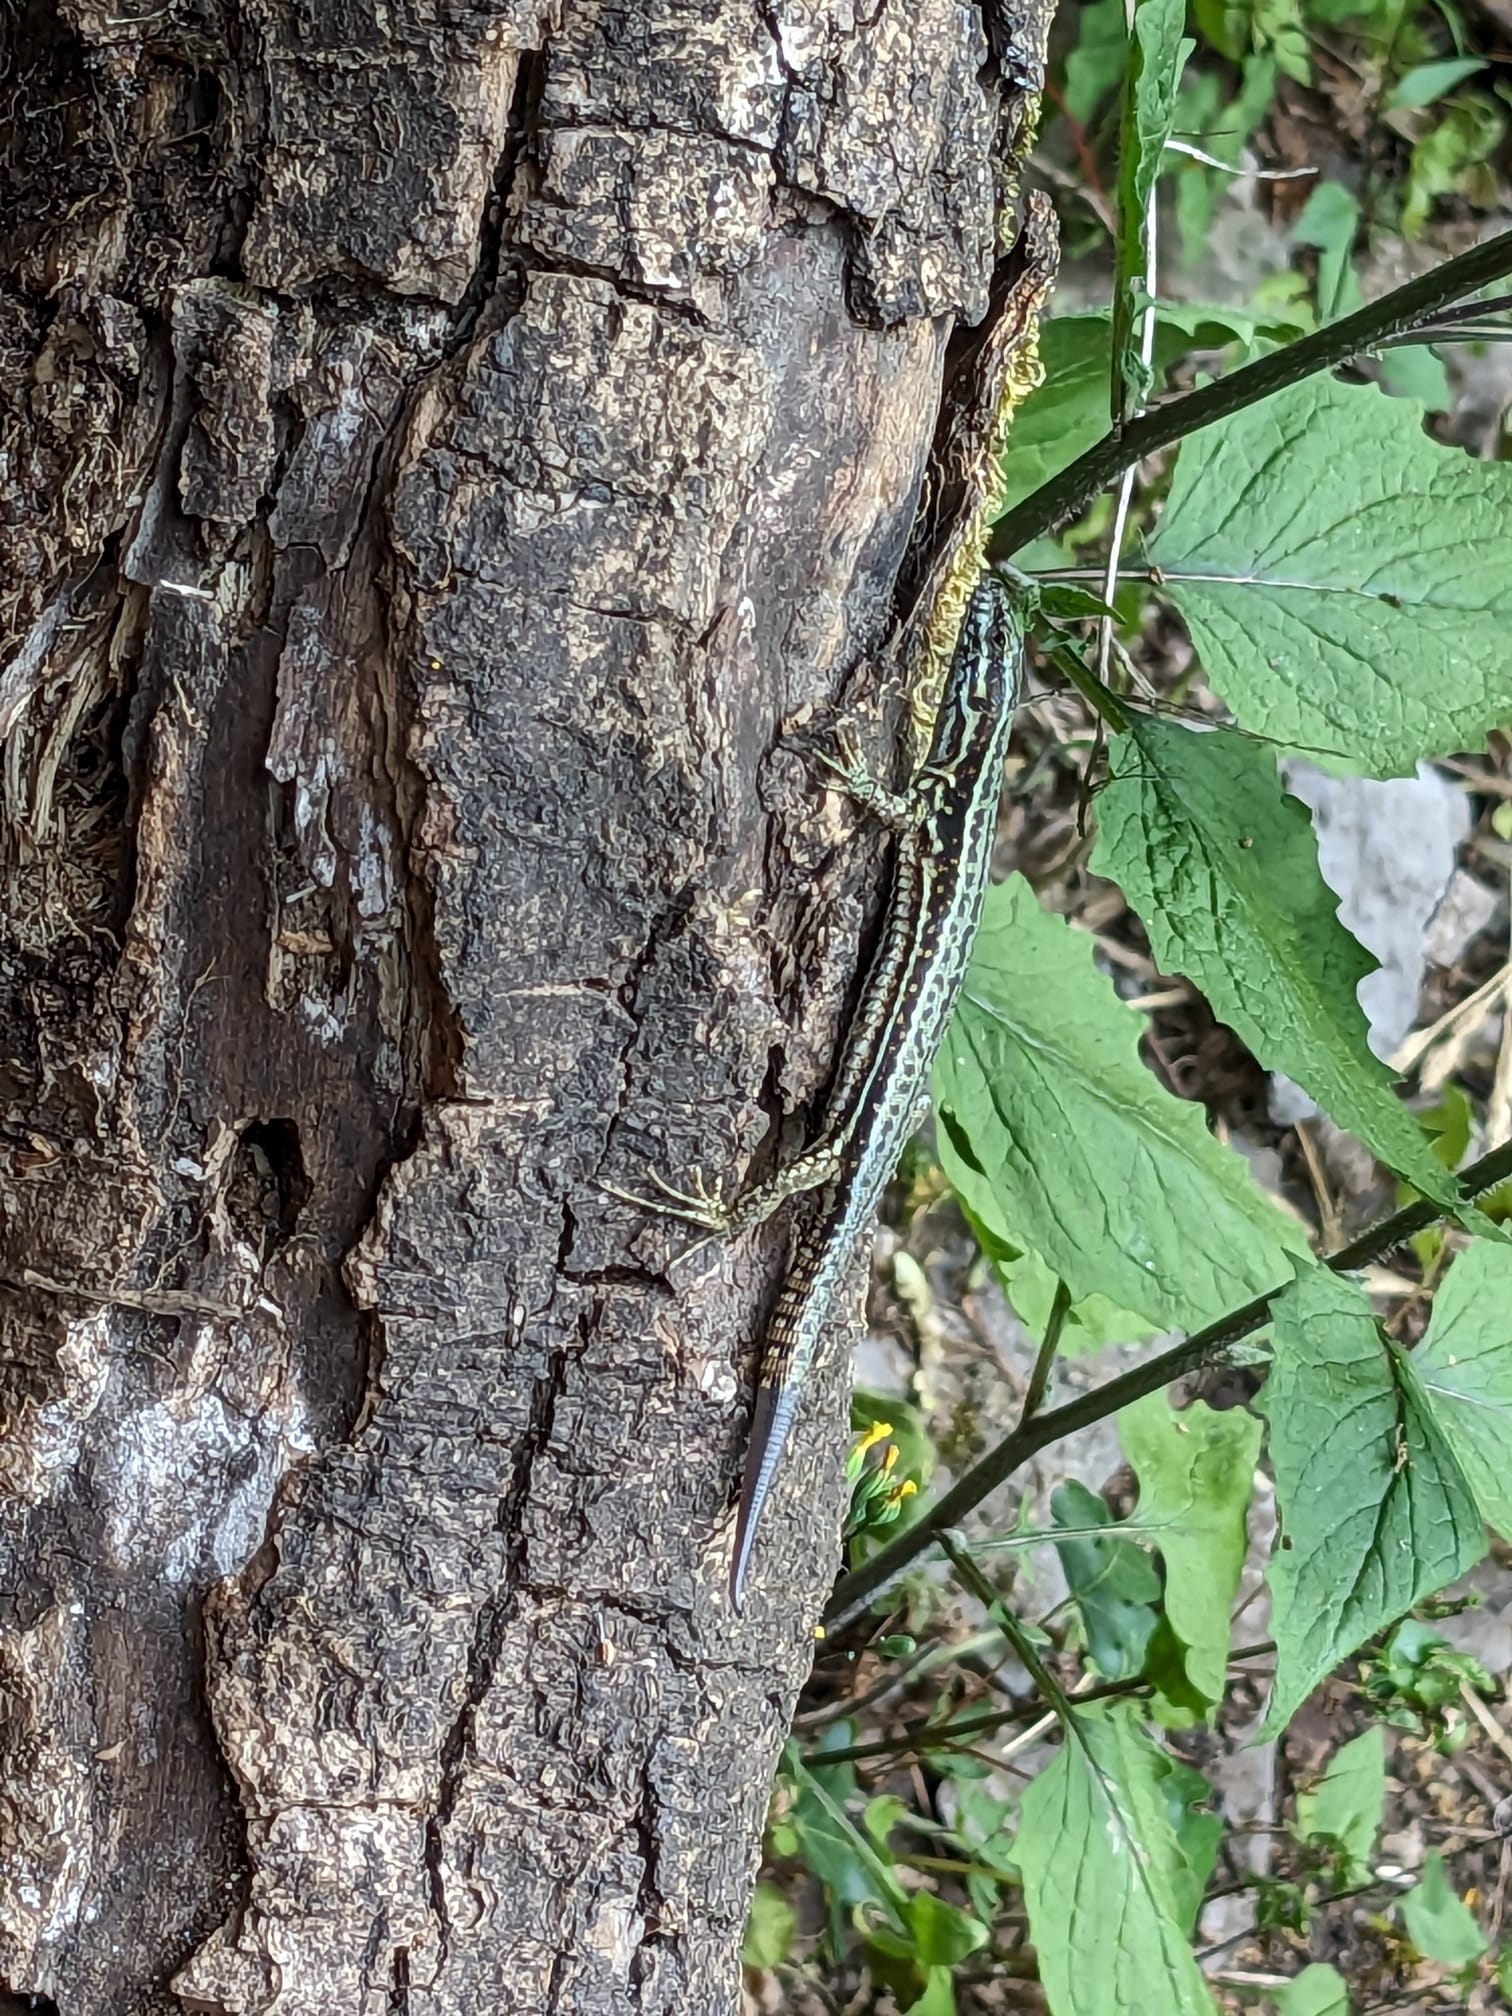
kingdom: Animalia
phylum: Chordata
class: Squamata
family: Lacertidae
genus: Podarcis
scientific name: Podarcis muralis
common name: Common wall lizard
